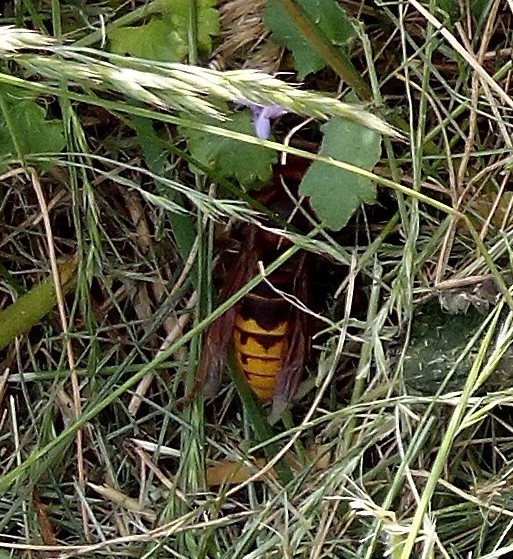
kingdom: Animalia
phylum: Arthropoda
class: Insecta
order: Hymenoptera
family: Vespidae
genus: Vespa
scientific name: Vespa crabro
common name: Hornet
